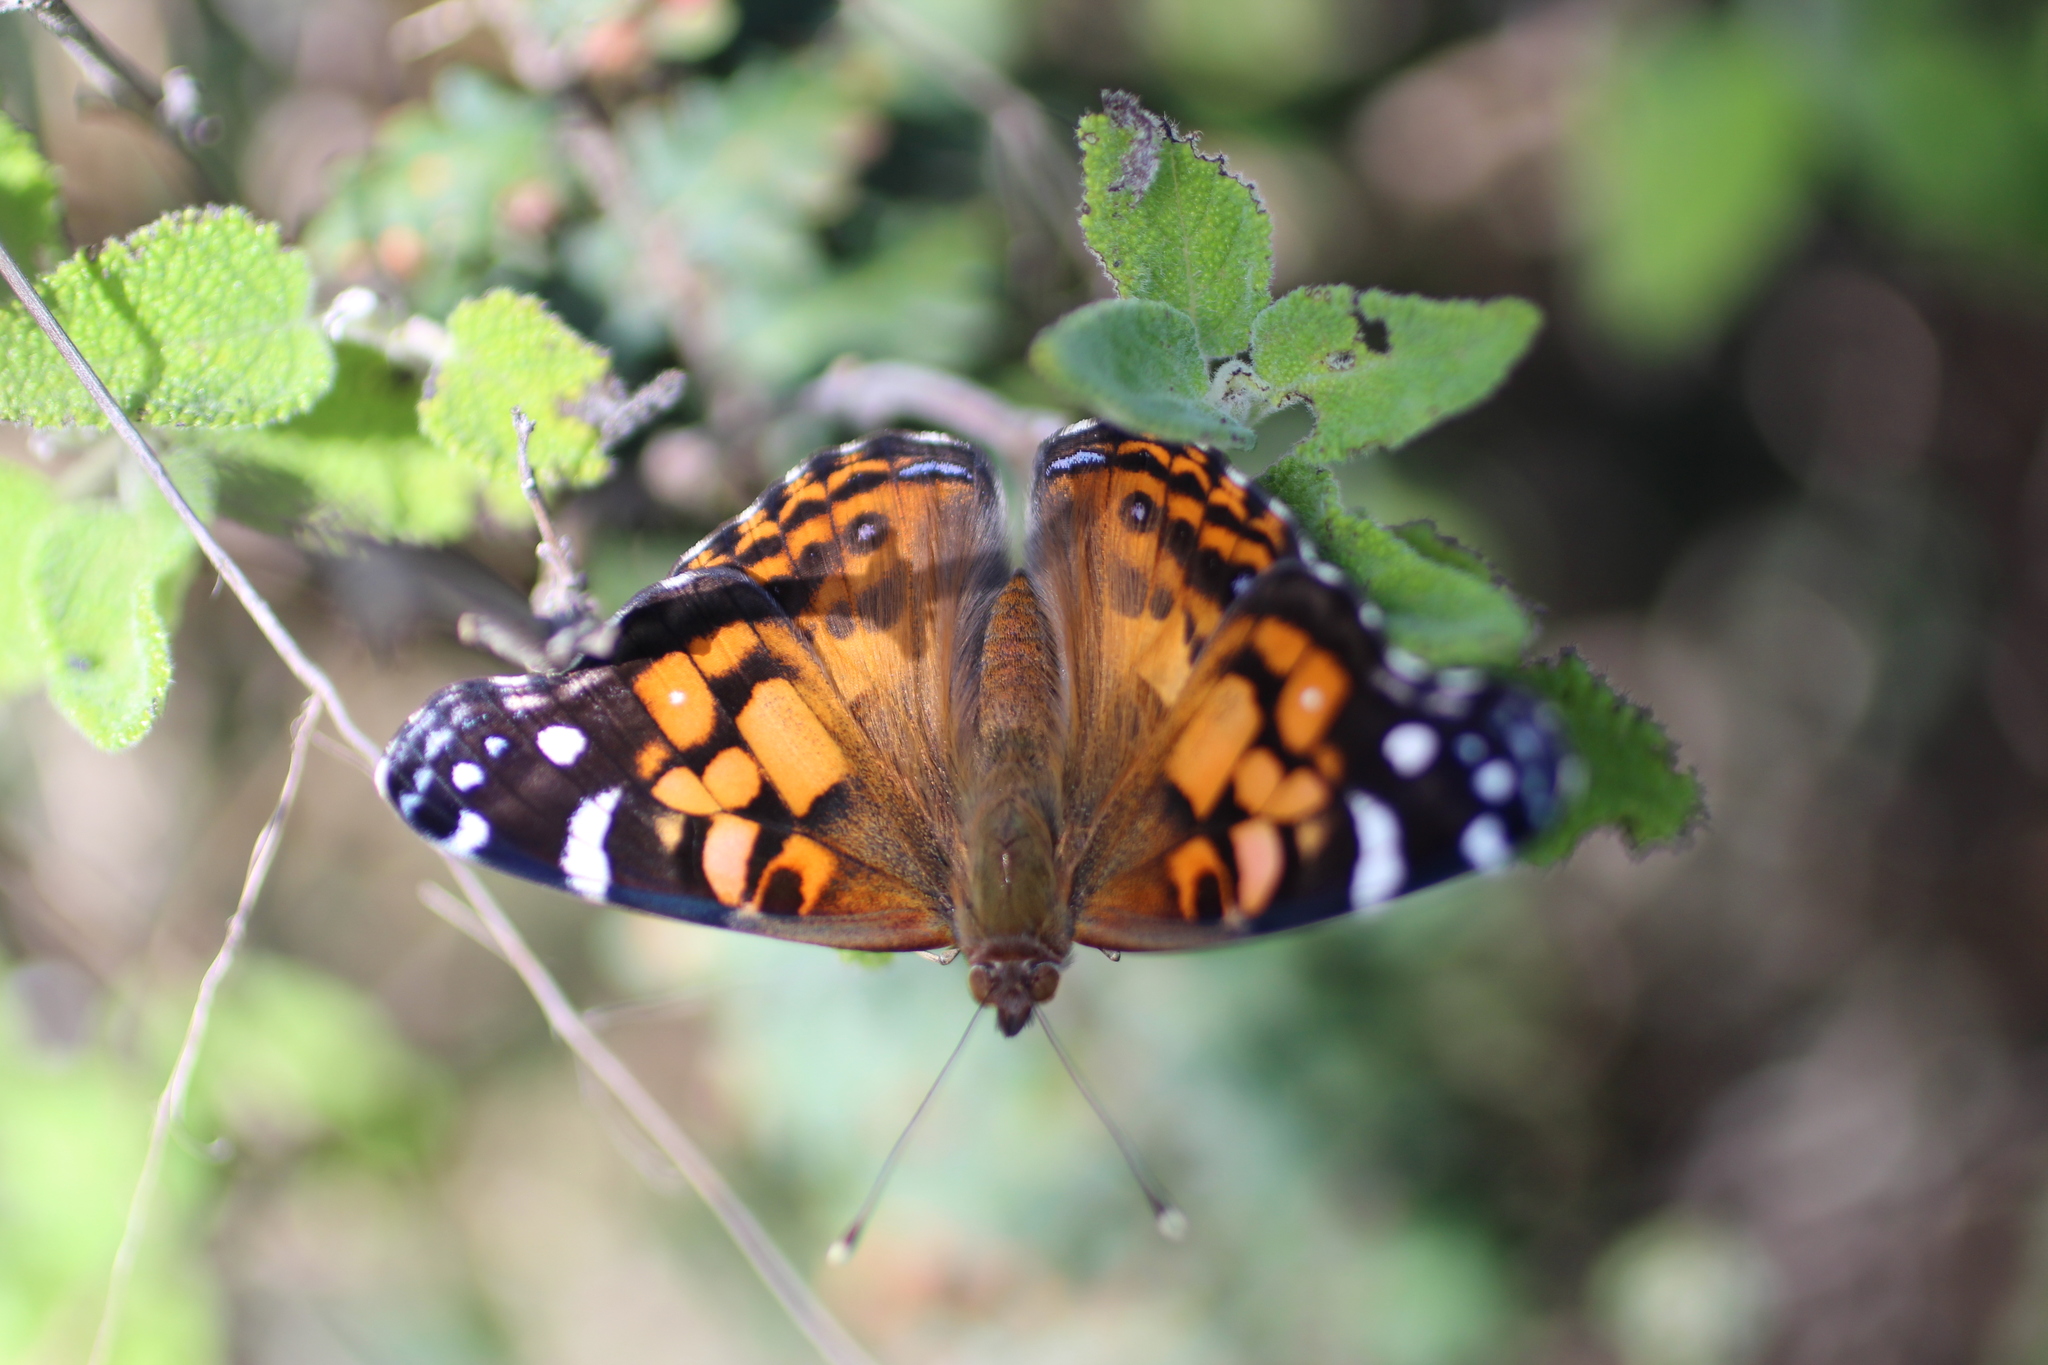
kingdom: Animalia
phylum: Arthropoda
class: Insecta
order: Lepidoptera
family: Nymphalidae
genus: Vanessa
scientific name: Vanessa virginiensis
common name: American lady
